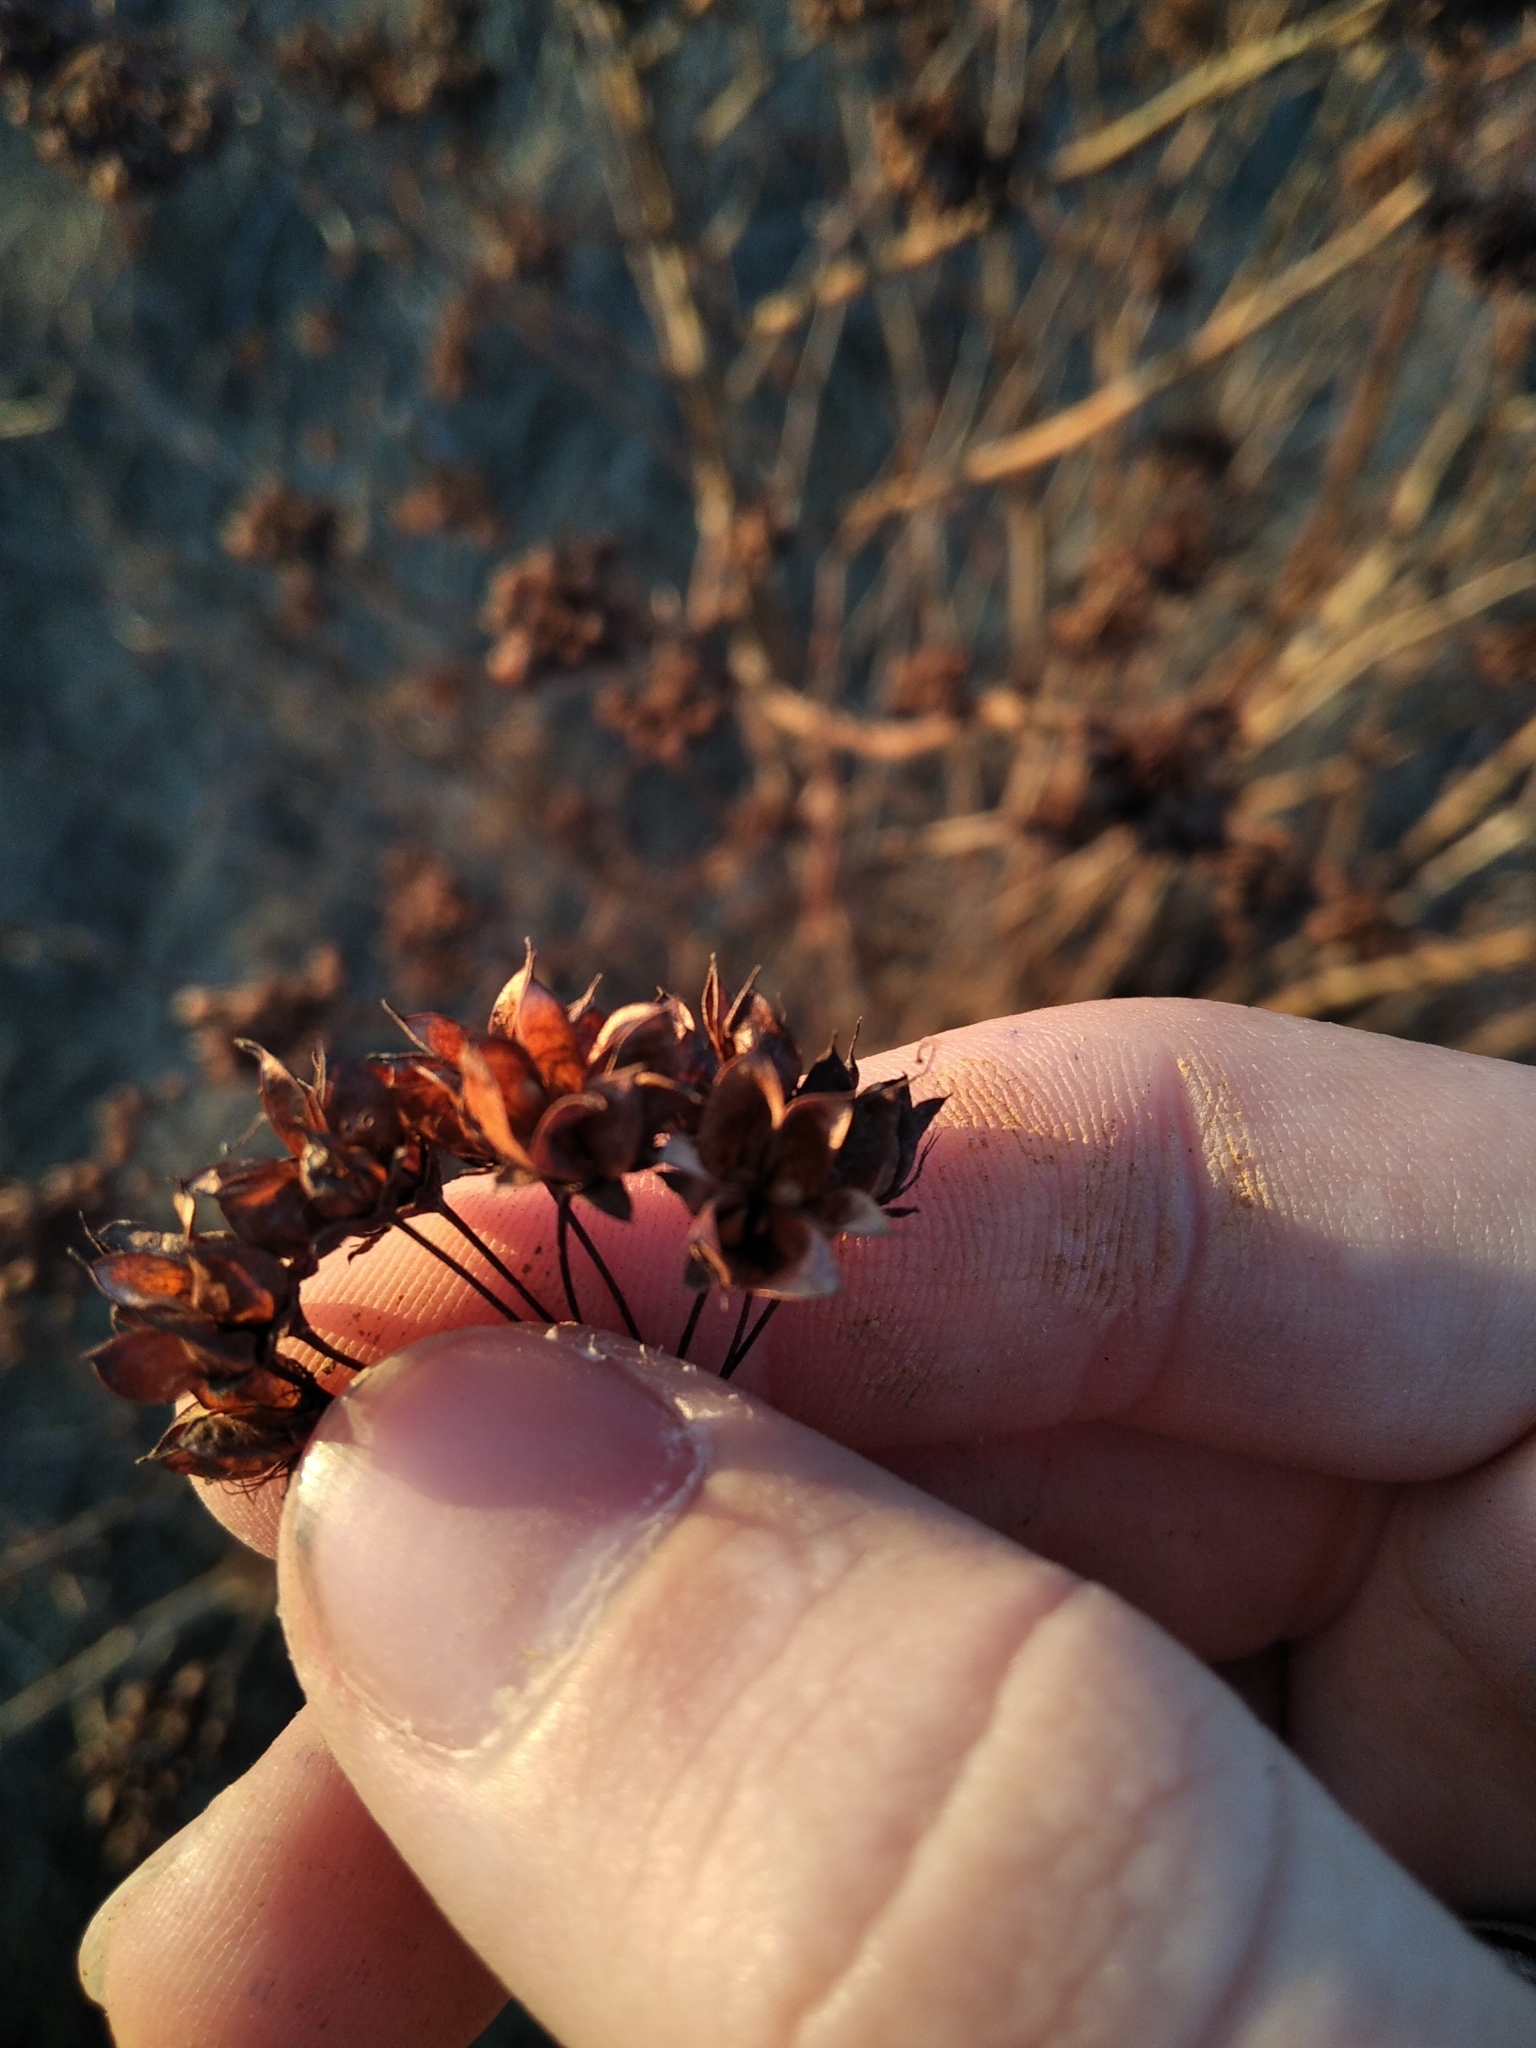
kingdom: Plantae
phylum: Tracheophyta
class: Magnoliopsida
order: Rosales
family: Rosaceae
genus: Physocarpus
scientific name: Physocarpus opulifolius
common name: Ninebark
